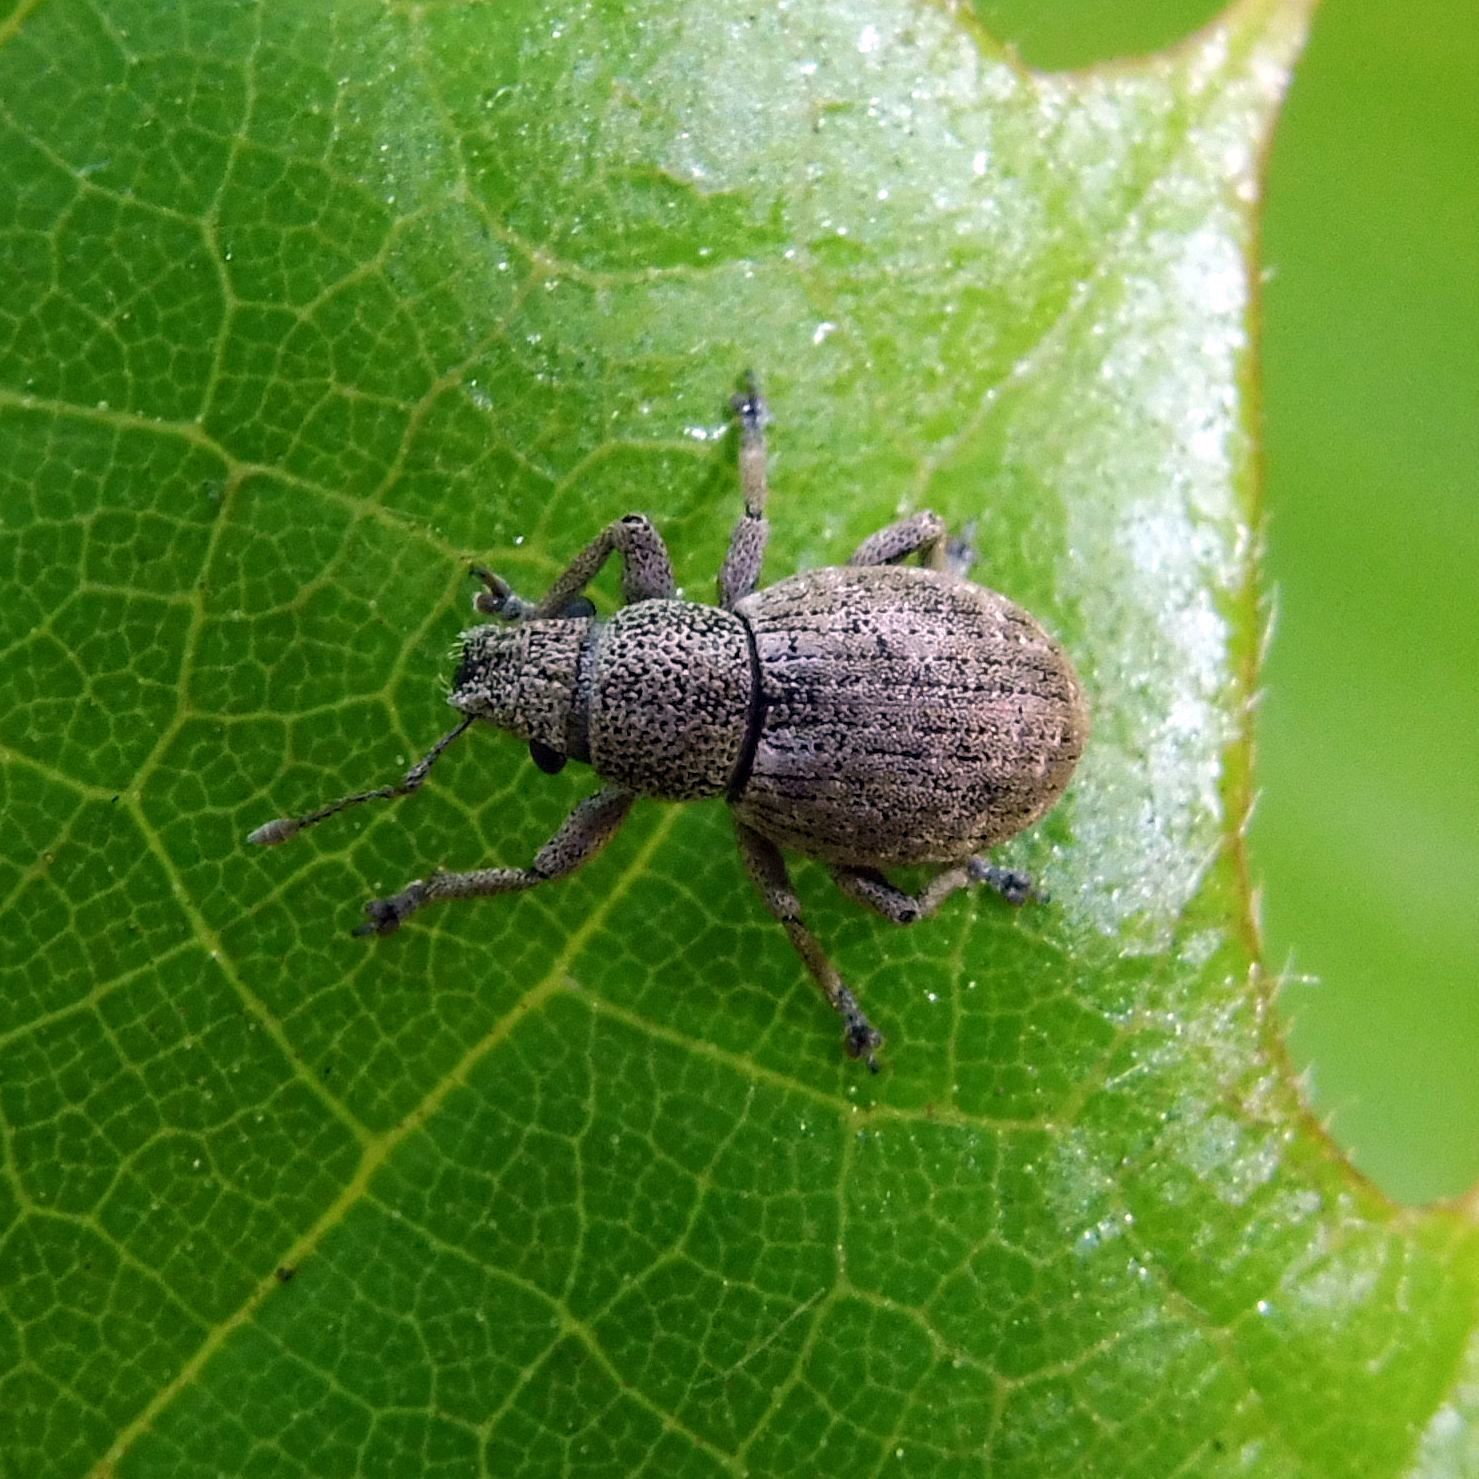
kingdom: Animalia
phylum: Arthropoda
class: Insecta
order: Coleoptera
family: Curculionidae
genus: Strophosoma
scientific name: Strophosoma capitatum
